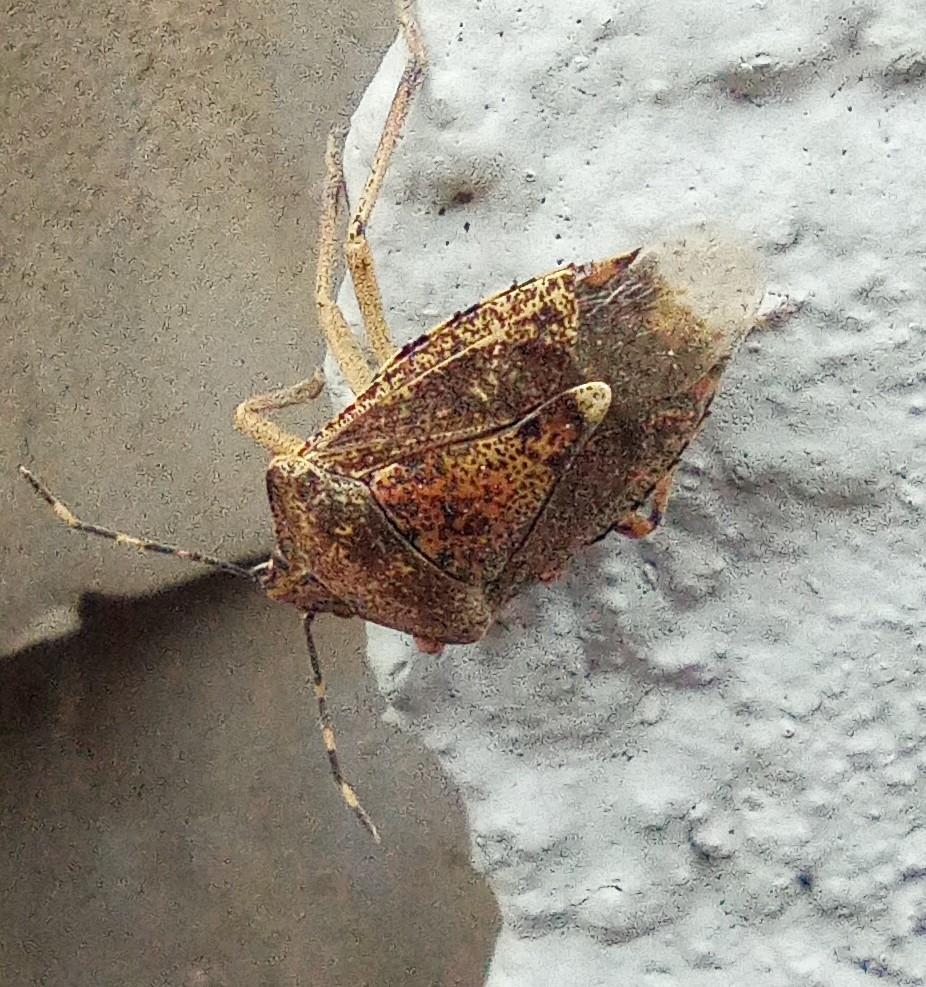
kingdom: Animalia
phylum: Arthropoda
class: Insecta
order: Hemiptera
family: Pentatomidae
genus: Rhaphigaster
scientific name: Rhaphigaster nebulosa
